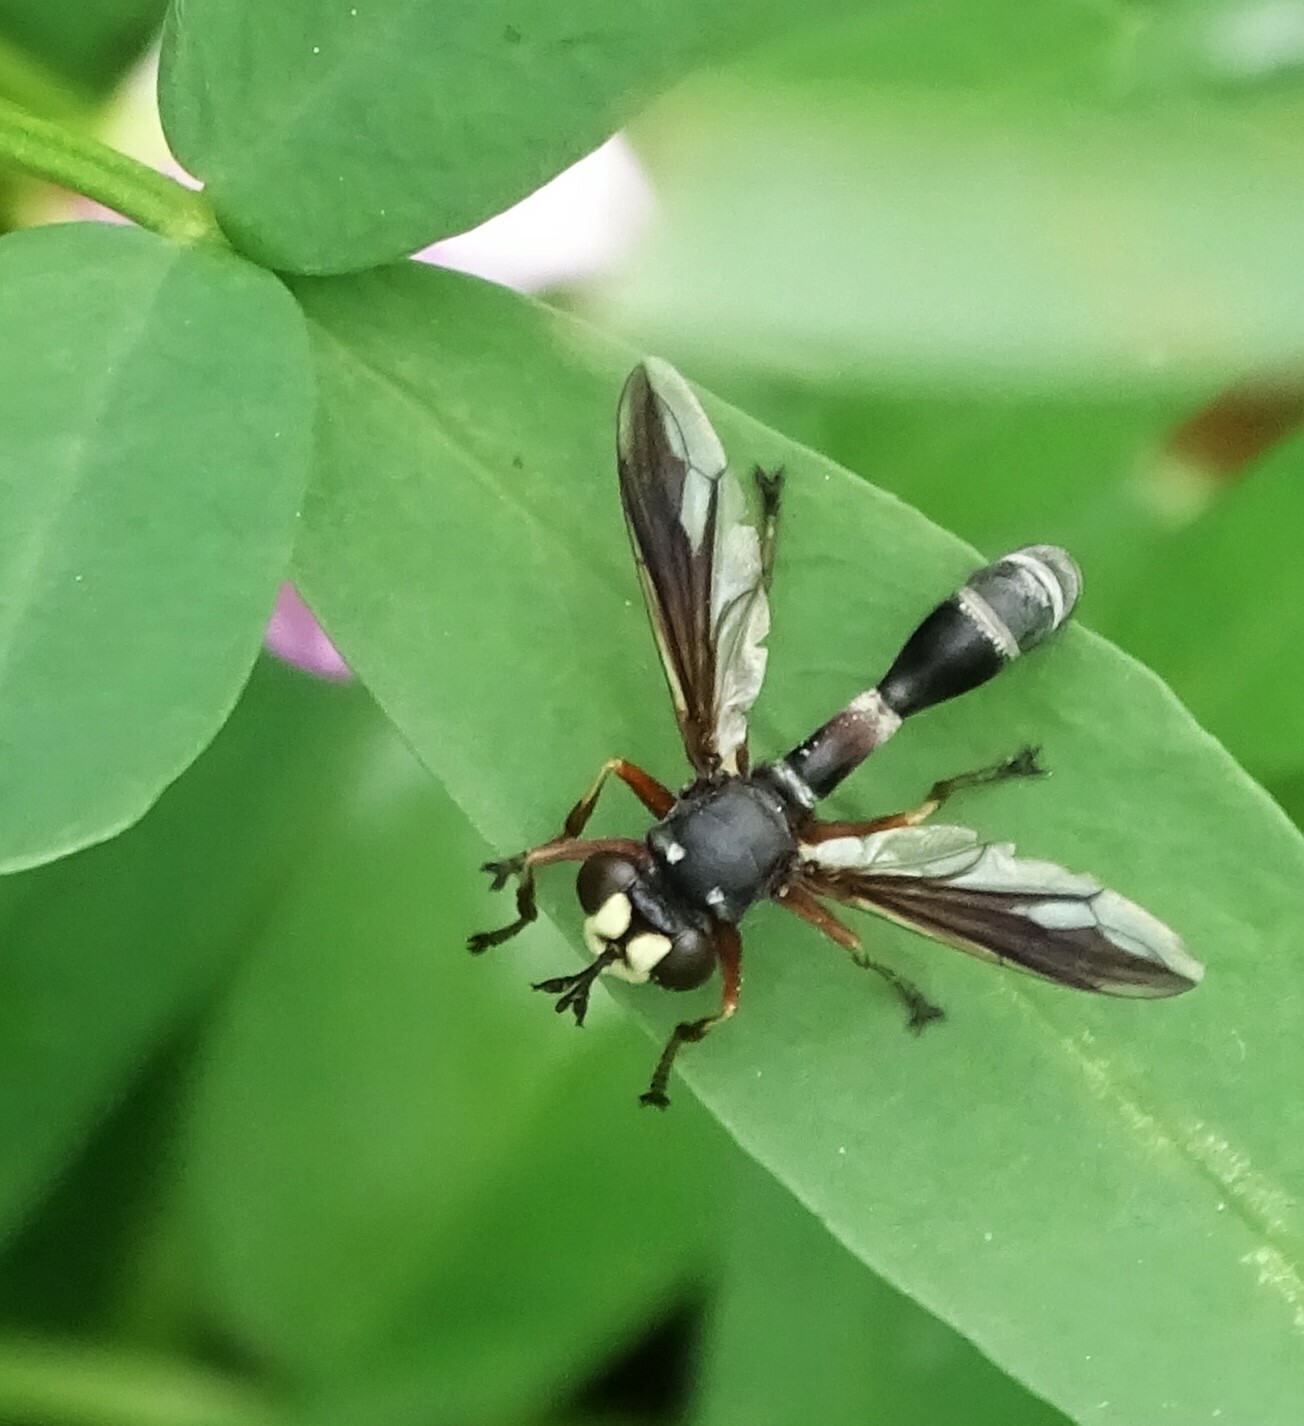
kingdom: Animalia
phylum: Arthropoda
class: Insecta
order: Diptera
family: Conopidae
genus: Physocephala
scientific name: Physocephala furcillata
